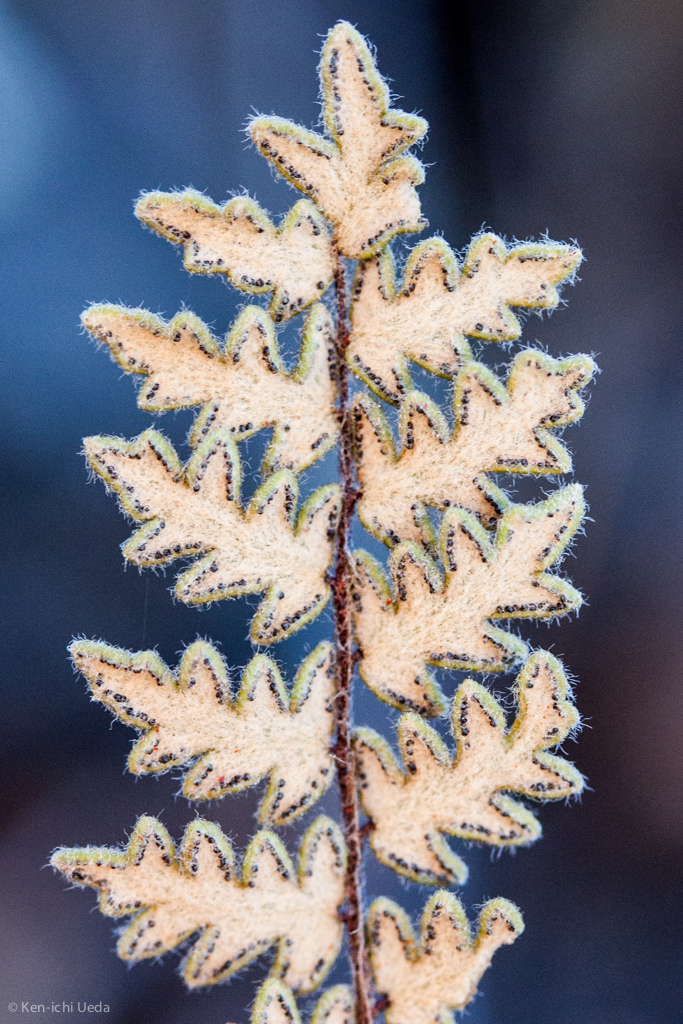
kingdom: Plantae
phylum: Tracheophyta
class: Polypodiopsida
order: Polypodiales
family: Pteridaceae
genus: Myriopteris
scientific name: Myriopteris aurea
